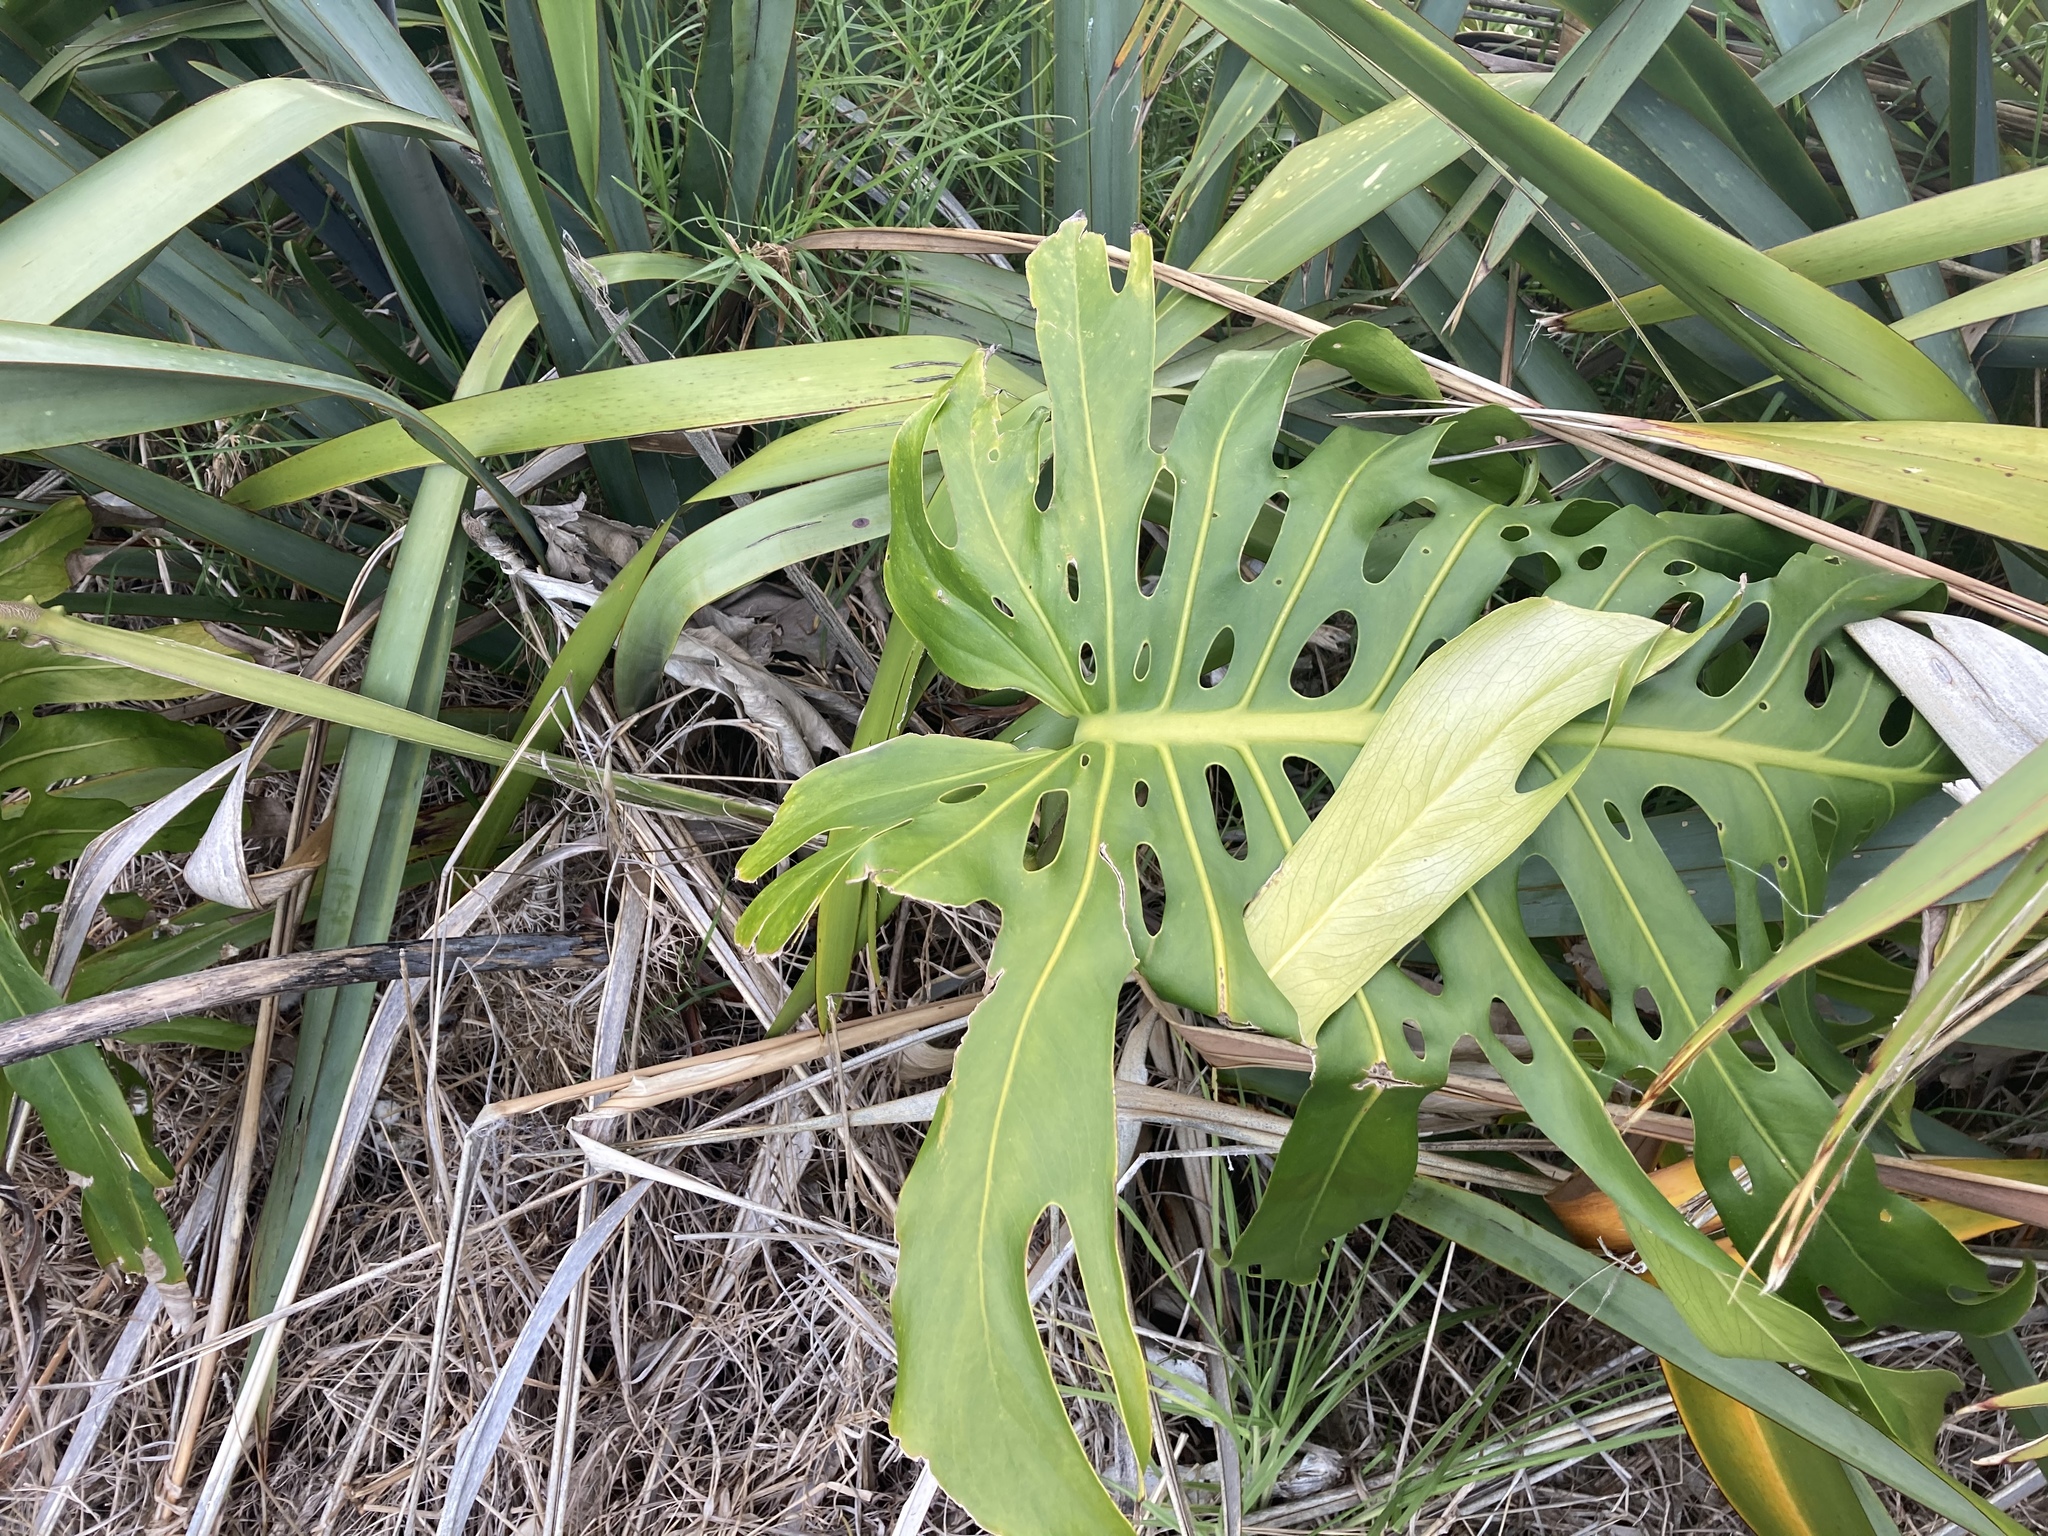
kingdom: Plantae
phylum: Tracheophyta
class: Liliopsida
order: Alismatales
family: Araceae
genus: Monstera
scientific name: Monstera deliciosa
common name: Cut-leaf-philodendron
